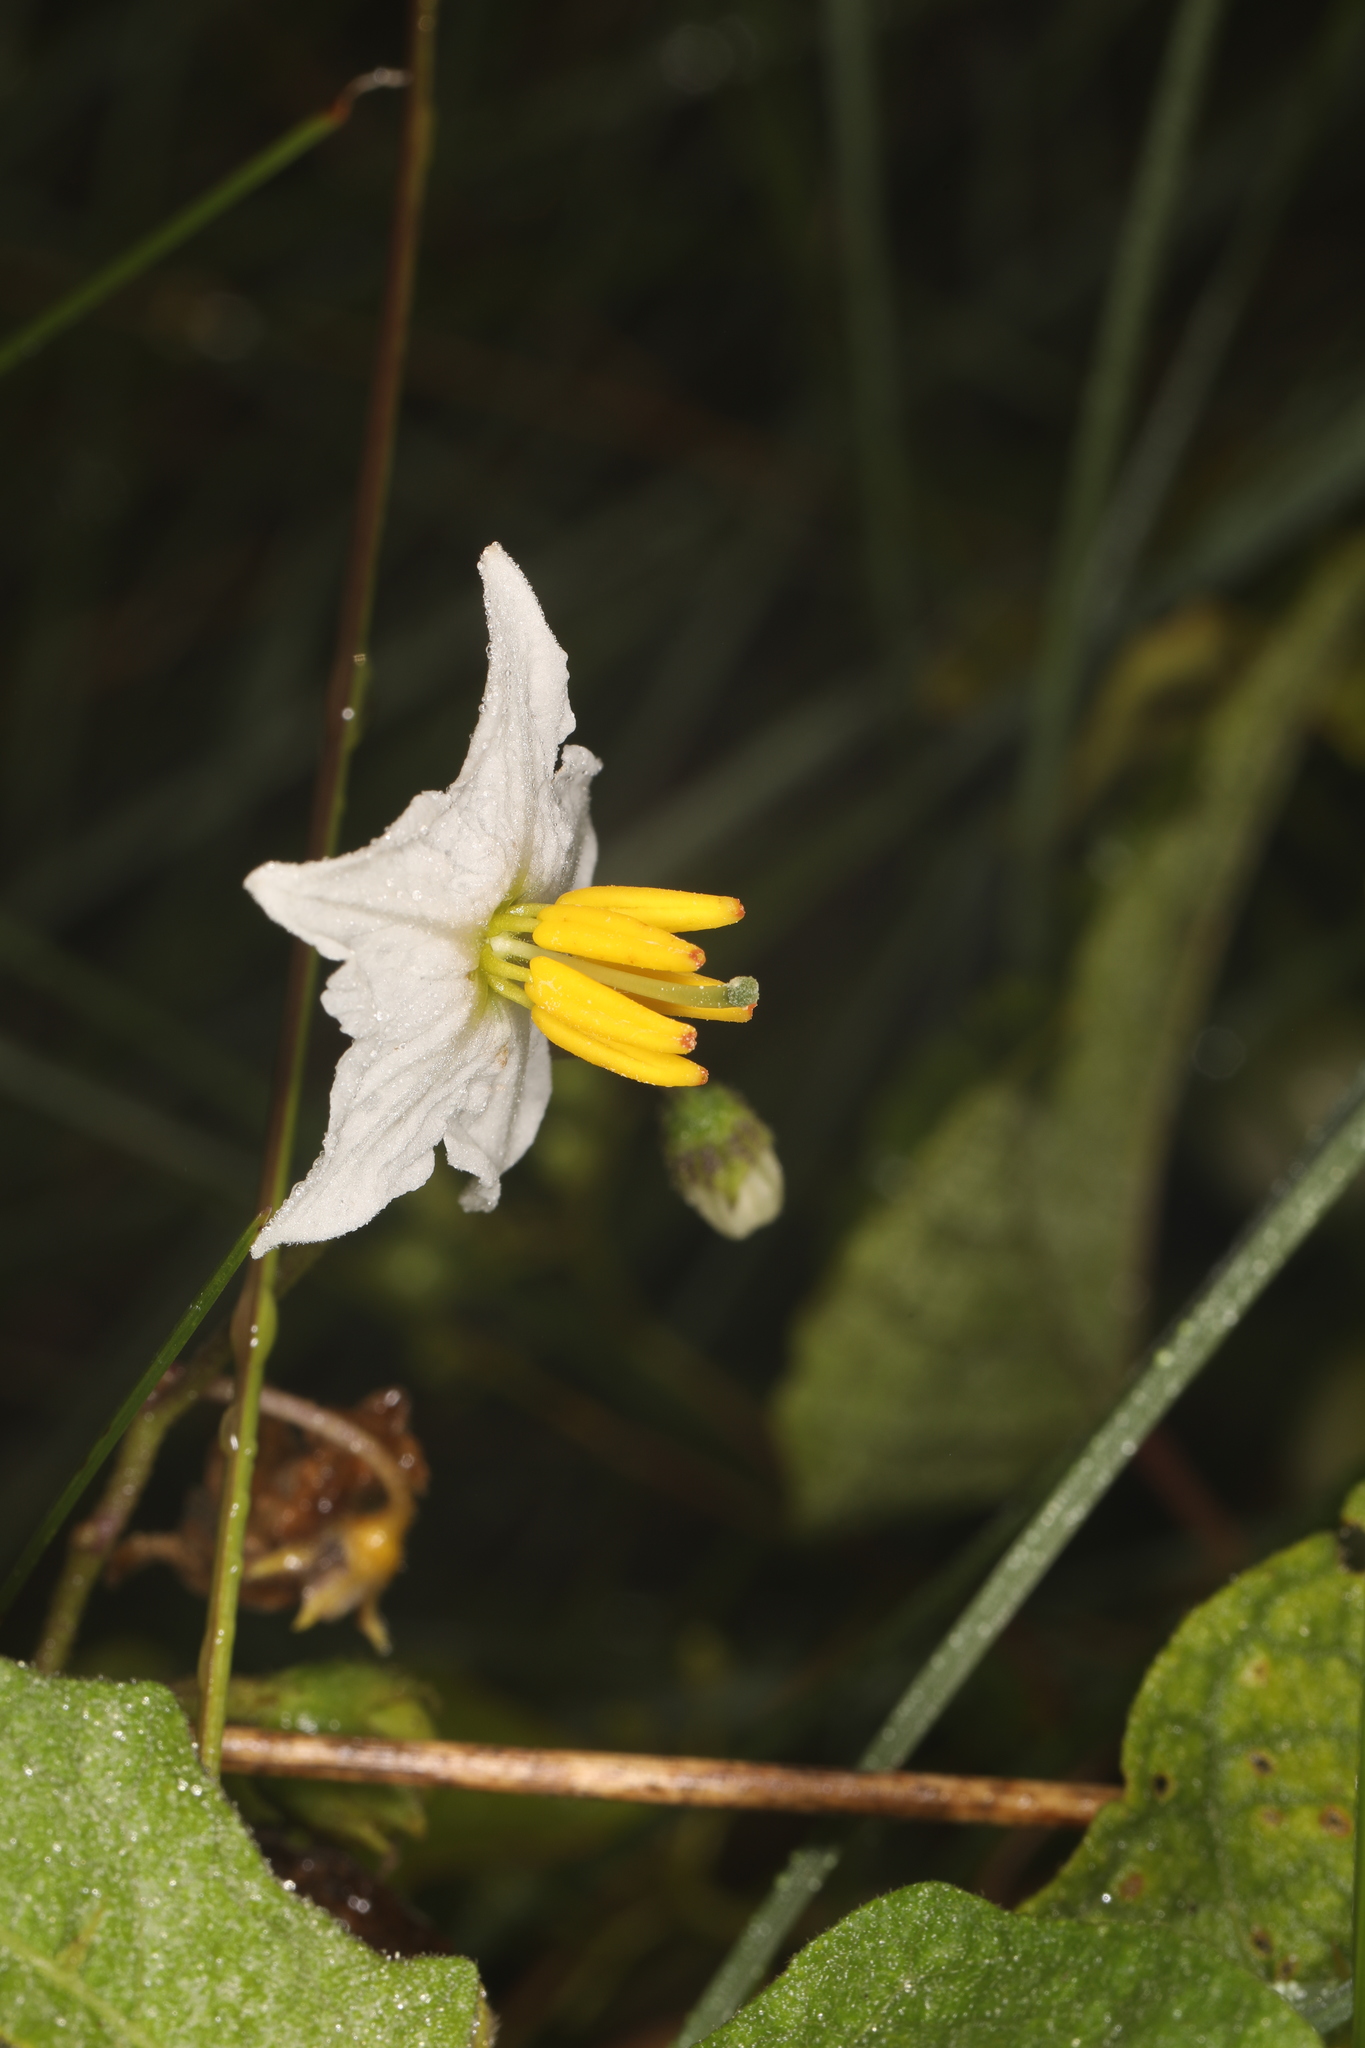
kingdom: Plantae
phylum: Tracheophyta
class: Magnoliopsida
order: Solanales
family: Solanaceae
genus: Solanum
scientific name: Solanum carolinense
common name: Horse-nettle
